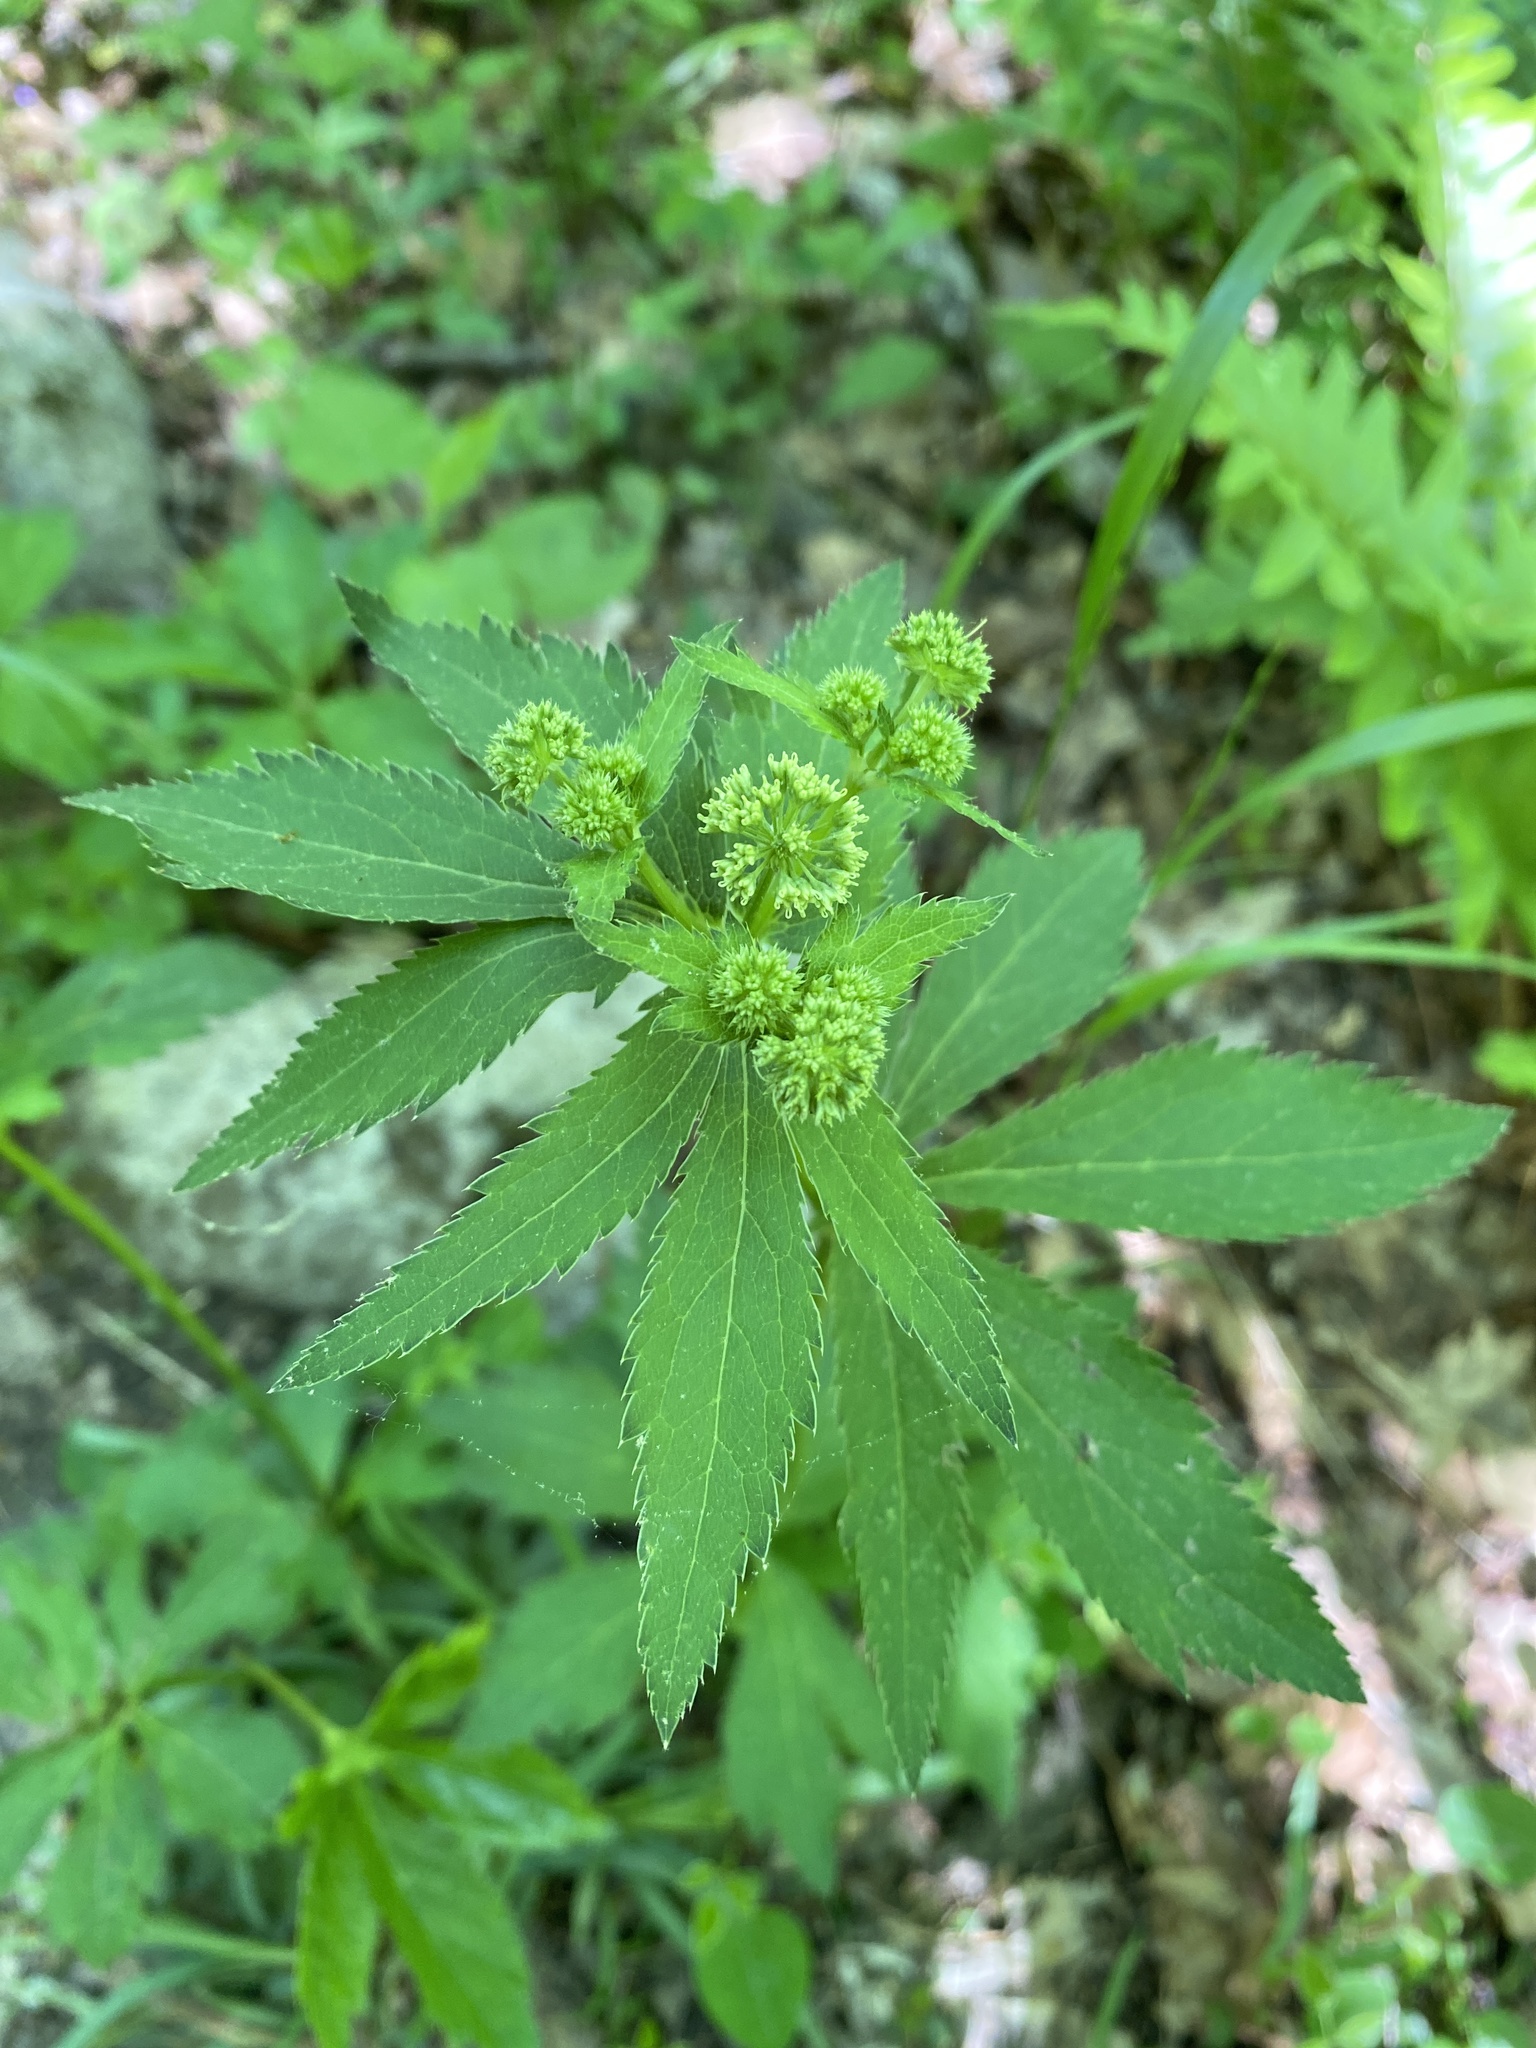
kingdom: Plantae
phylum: Tracheophyta
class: Magnoliopsida
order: Apiales
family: Apiaceae
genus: Sanicula
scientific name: Sanicula marilandica
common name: Black snakeroot
